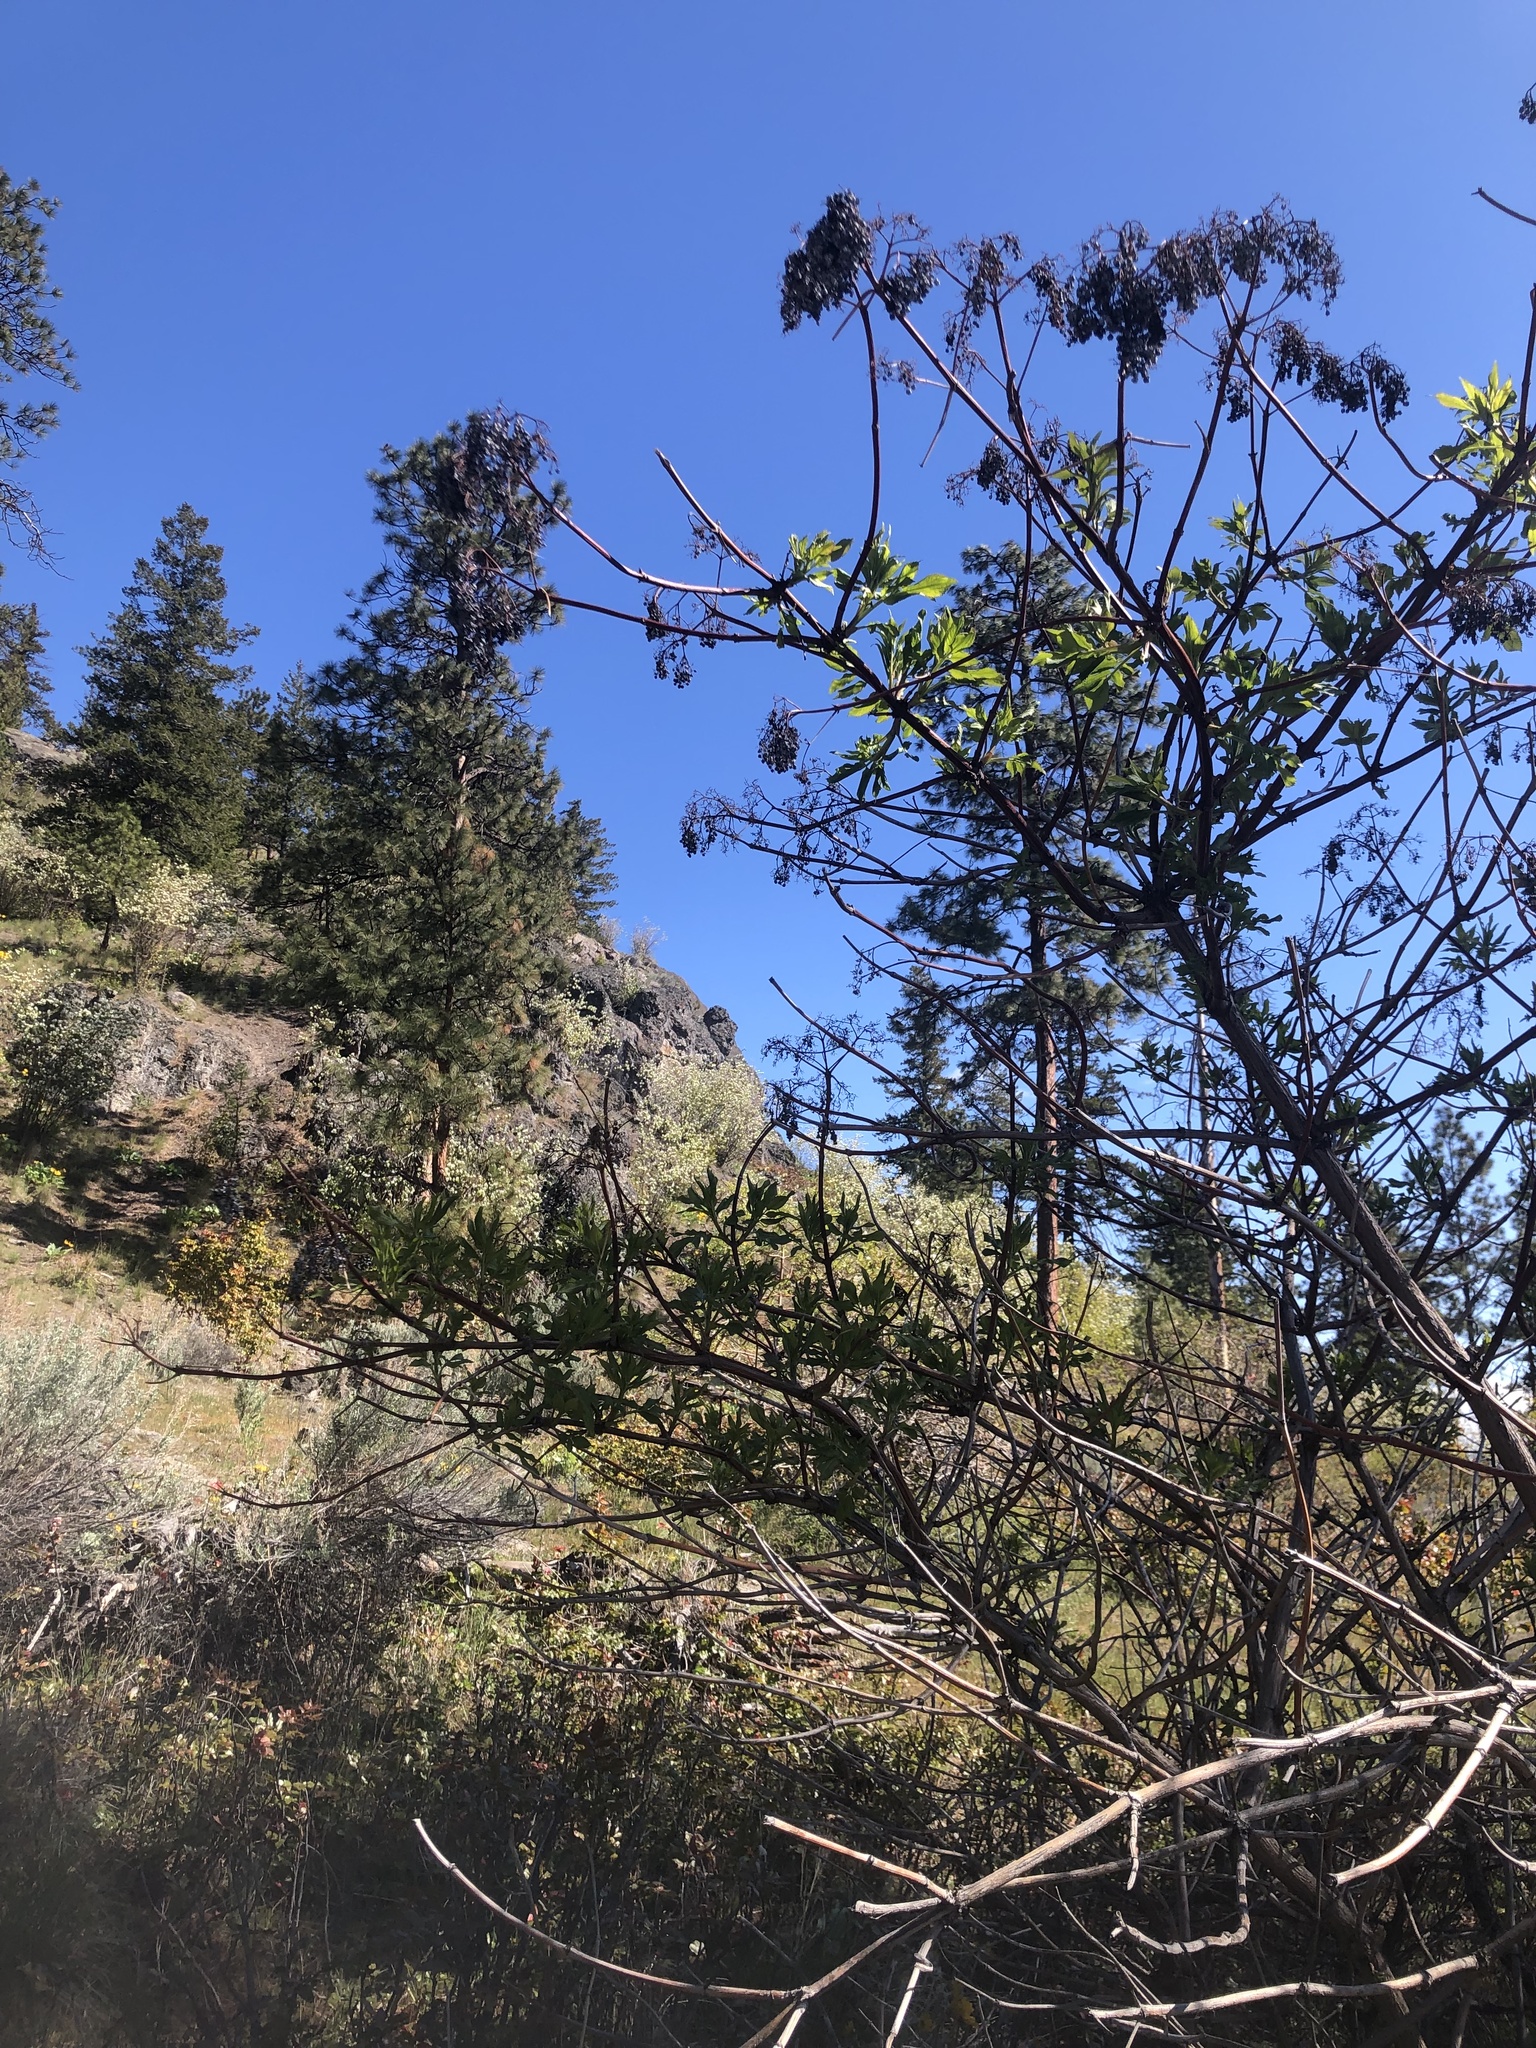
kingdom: Plantae
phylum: Tracheophyta
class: Magnoliopsida
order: Dipsacales
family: Viburnaceae
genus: Sambucus
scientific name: Sambucus cerulea
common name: Blue elder
